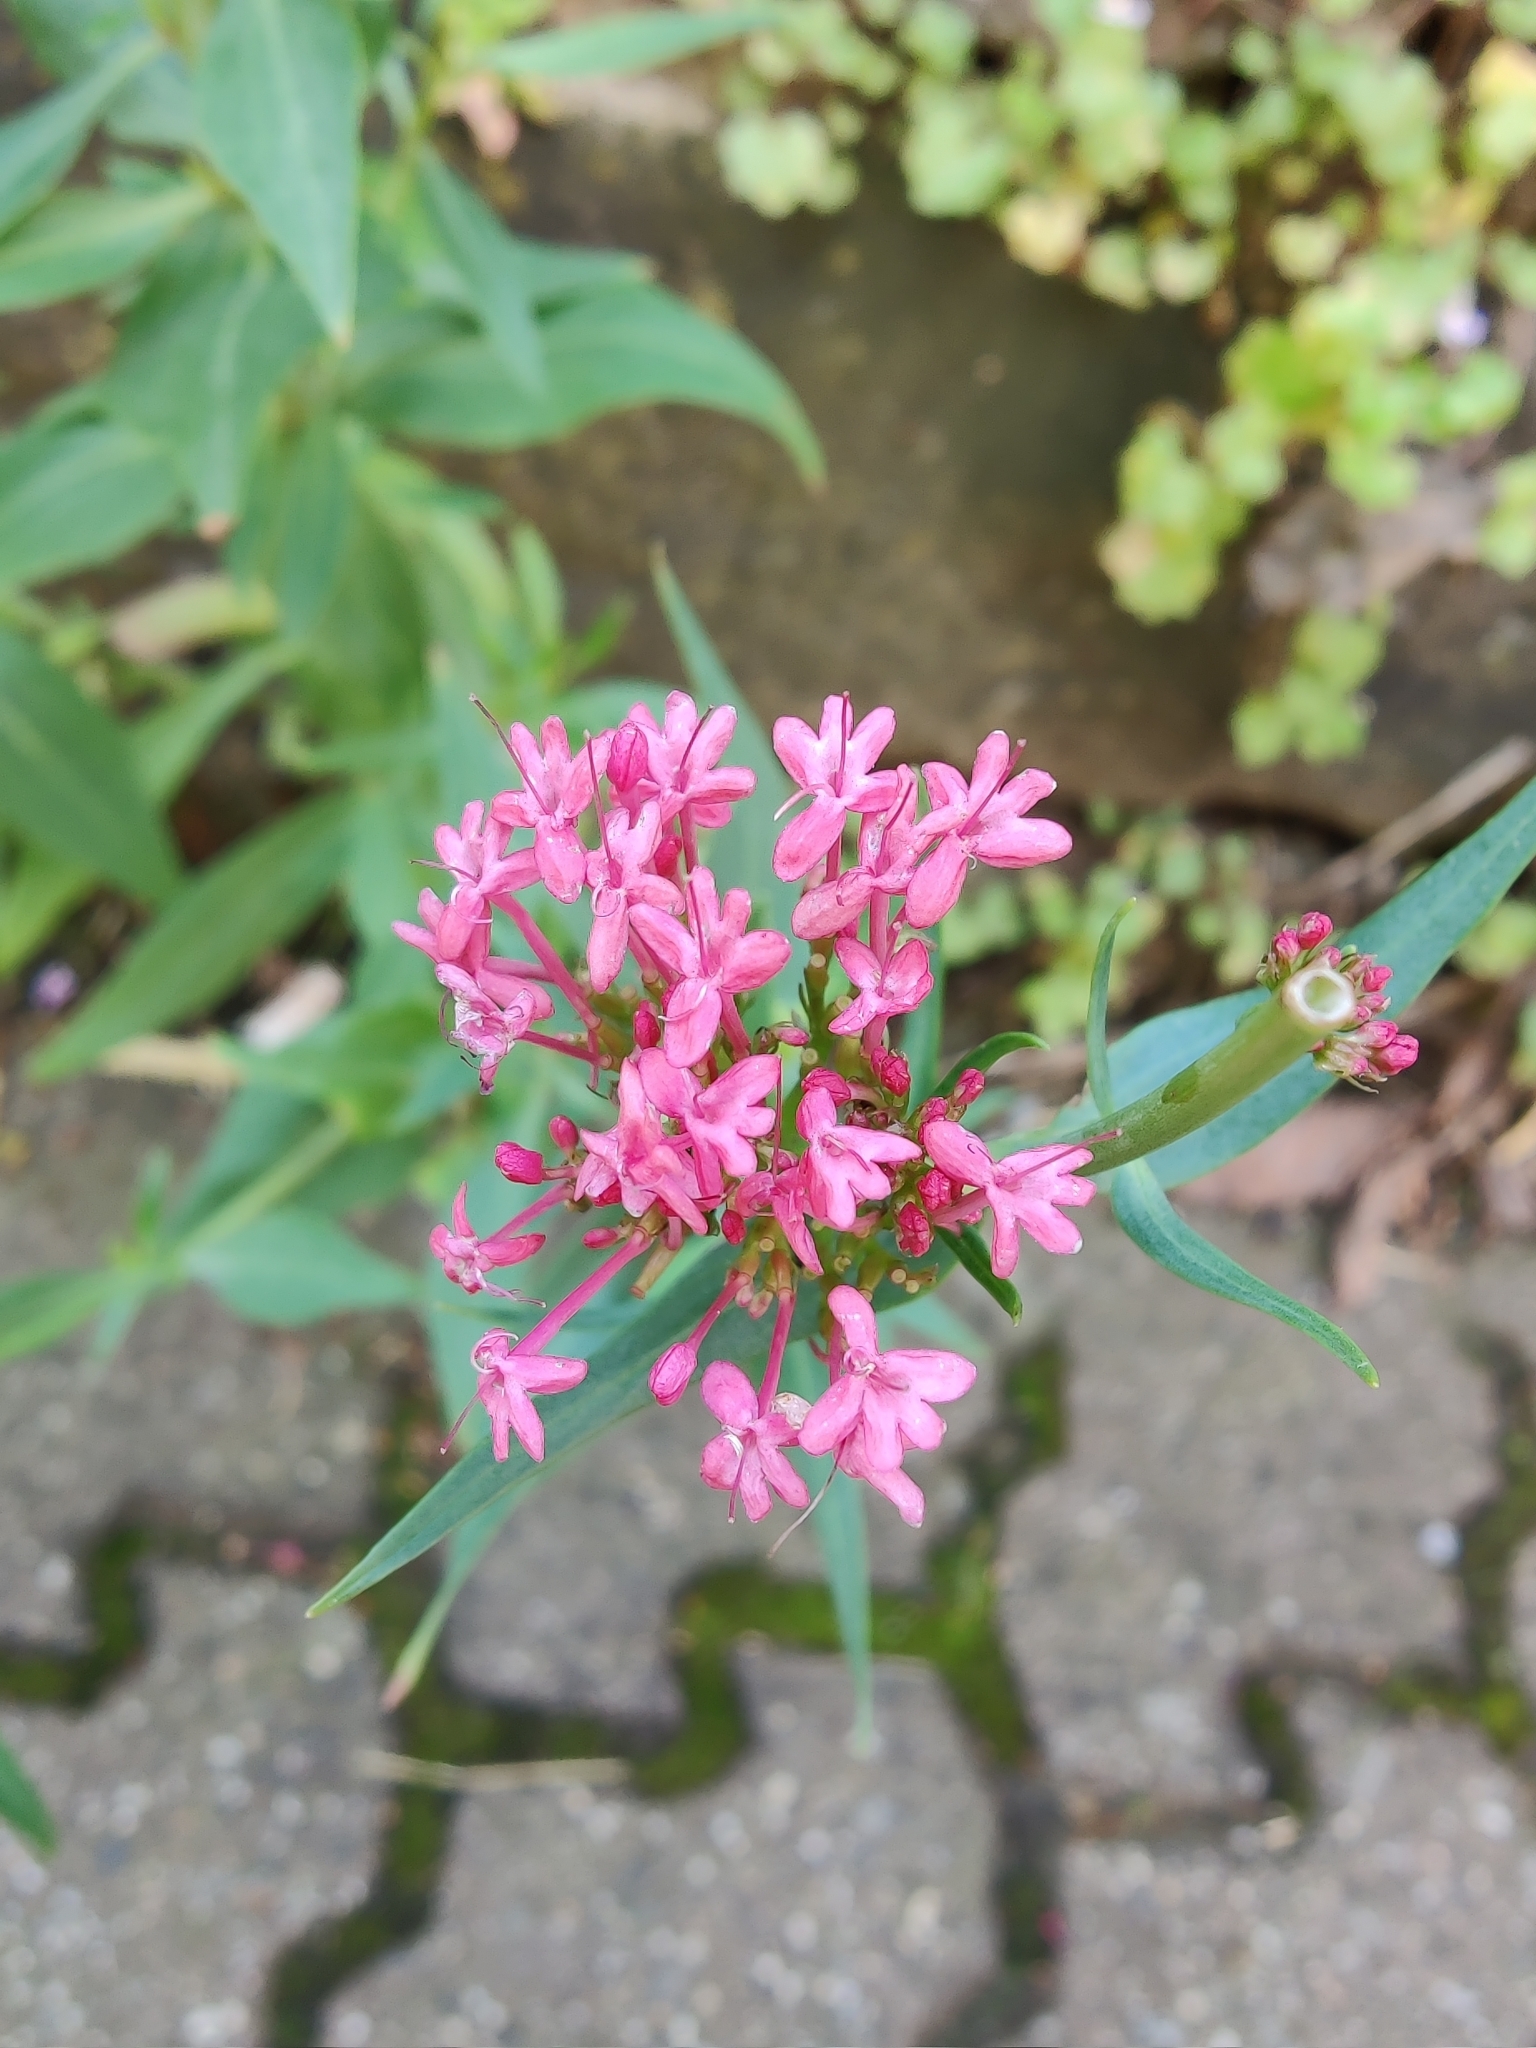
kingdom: Plantae
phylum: Tracheophyta
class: Magnoliopsida
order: Dipsacales
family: Caprifoliaceae
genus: Centranthus
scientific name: Centranthus ruber
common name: Red valerian
